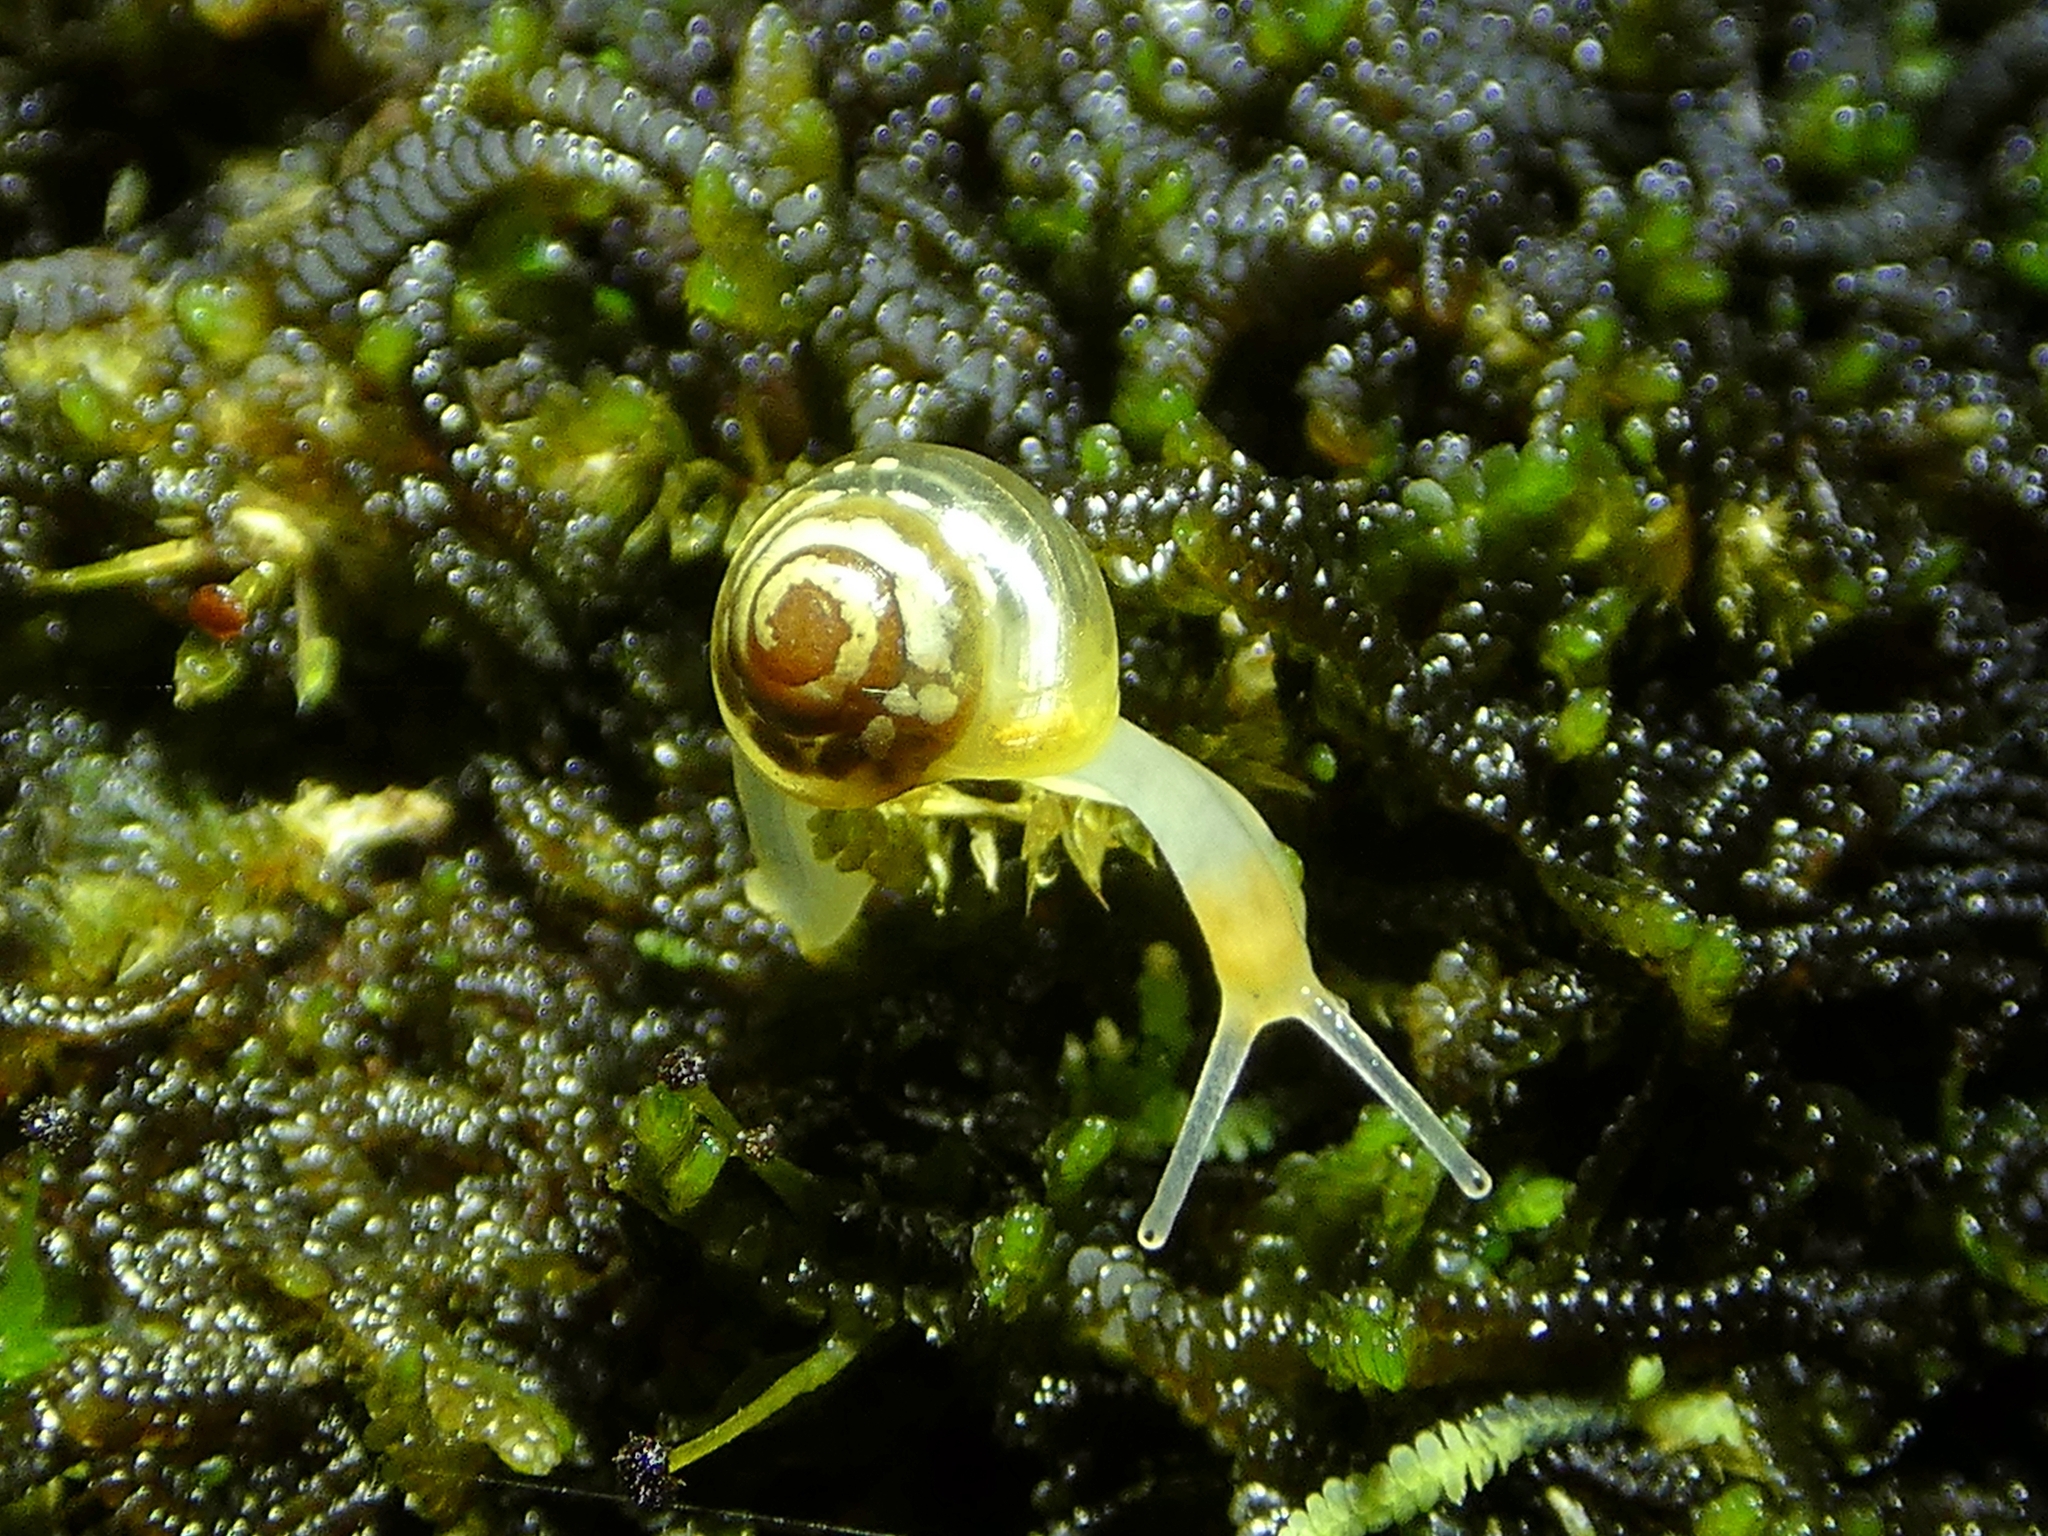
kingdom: Animalia
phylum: Mollusca
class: Gastropoda
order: Stylommatophora
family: Euconulidae
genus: Coneuplecta
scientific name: Coneuplecta pampini
